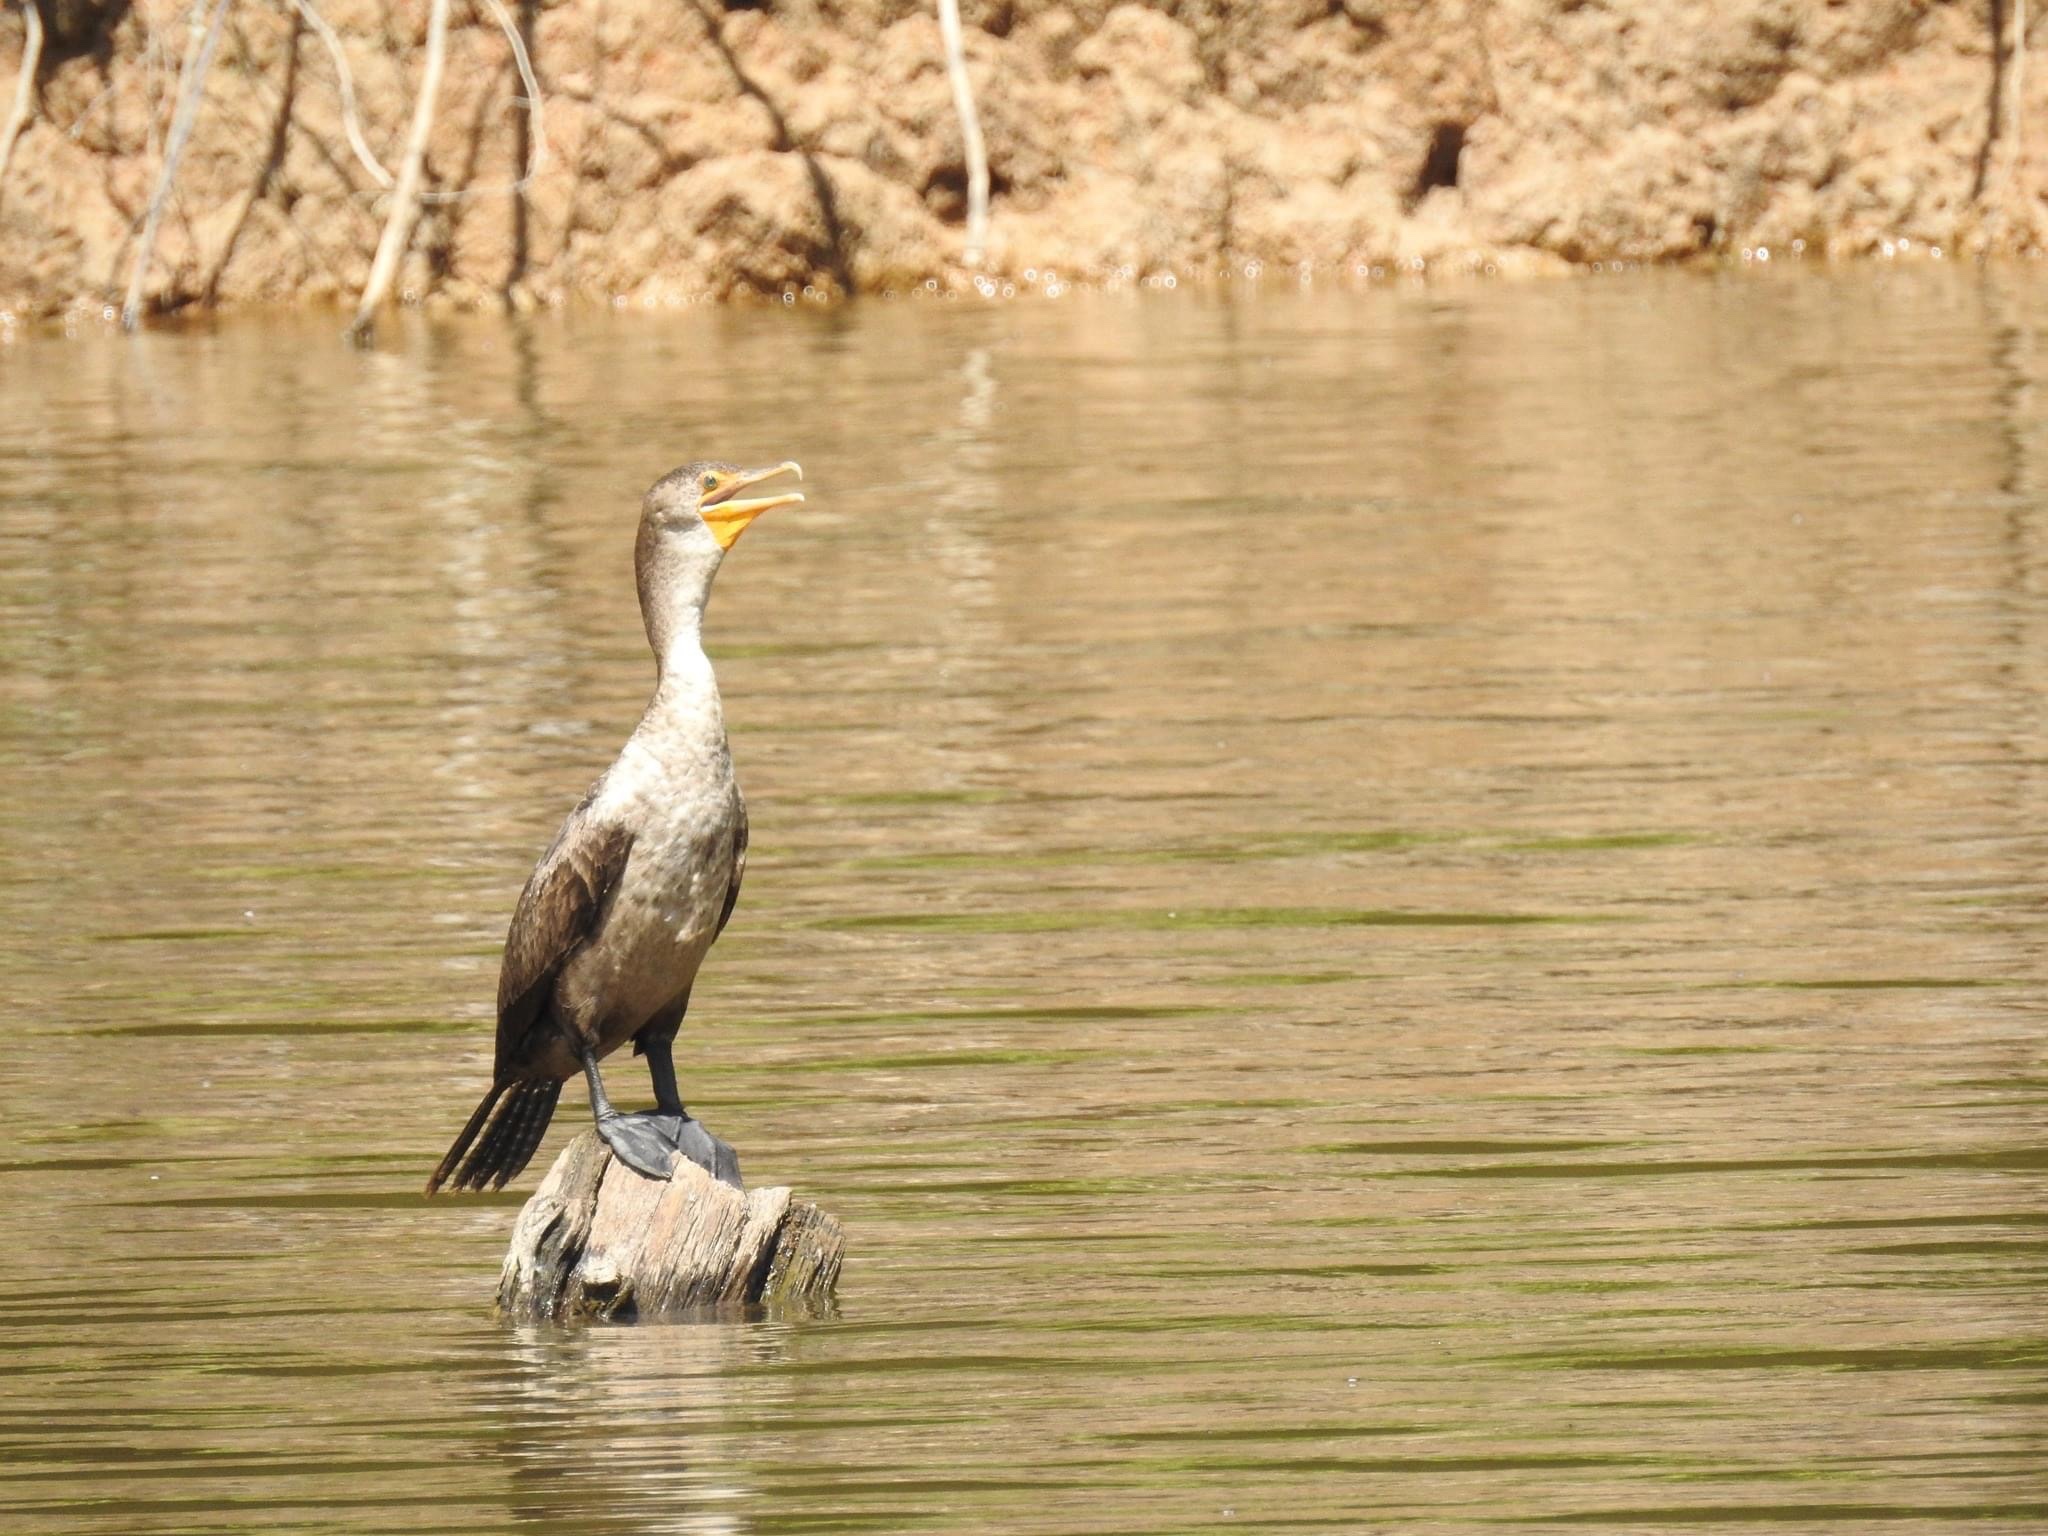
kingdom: Animalia
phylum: Chordata
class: Aves
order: Suliformes
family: Phalacrocoracidae
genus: Phalacrocorax
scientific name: Phalacrocorax auritus
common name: Double-crested cormorant
